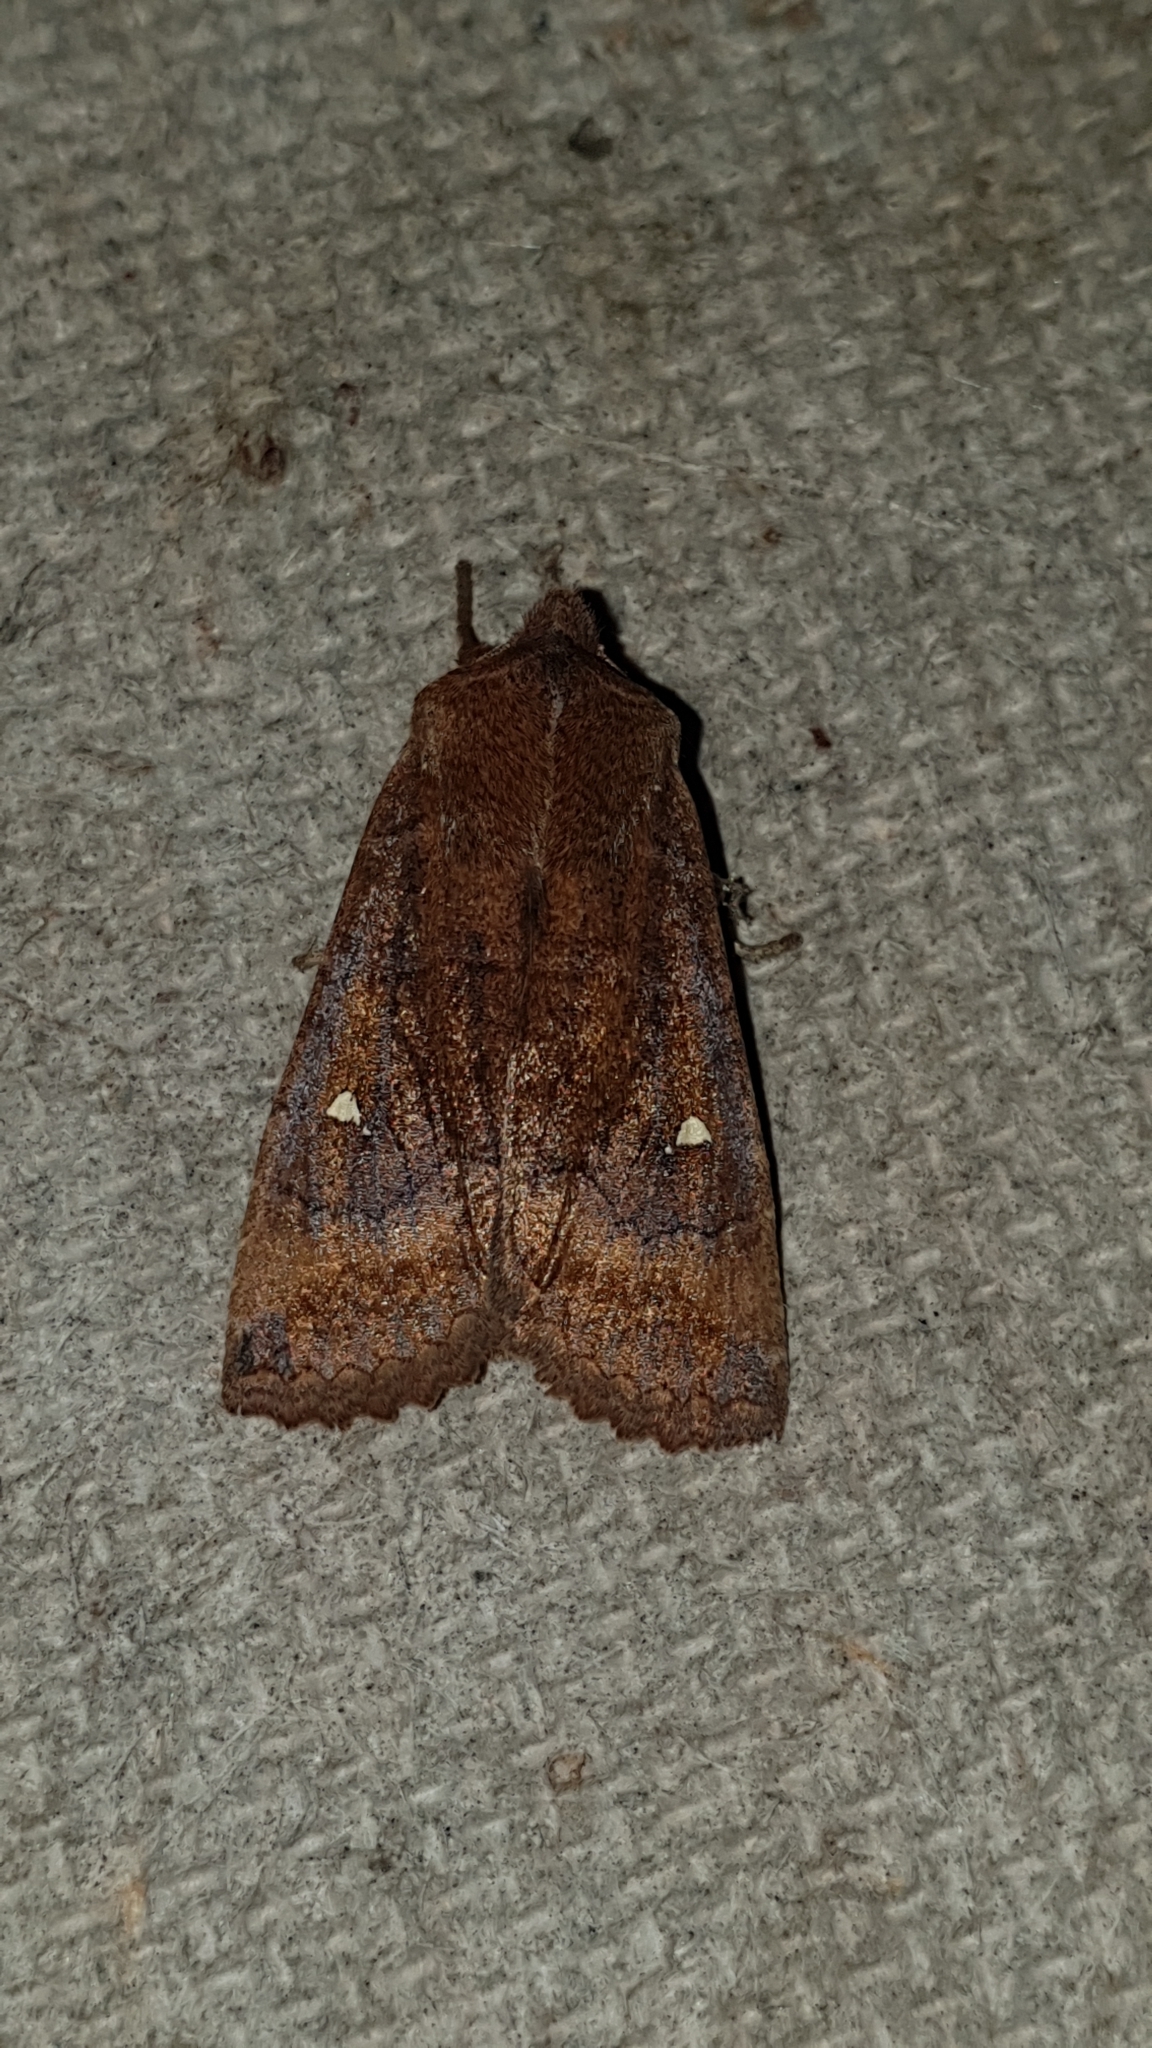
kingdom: Animalia
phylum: Arthropoda
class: Insecta
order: Lepidoptera
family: Noctuidae
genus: Eupsilia
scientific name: Eupsilia transversa
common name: Satellite
